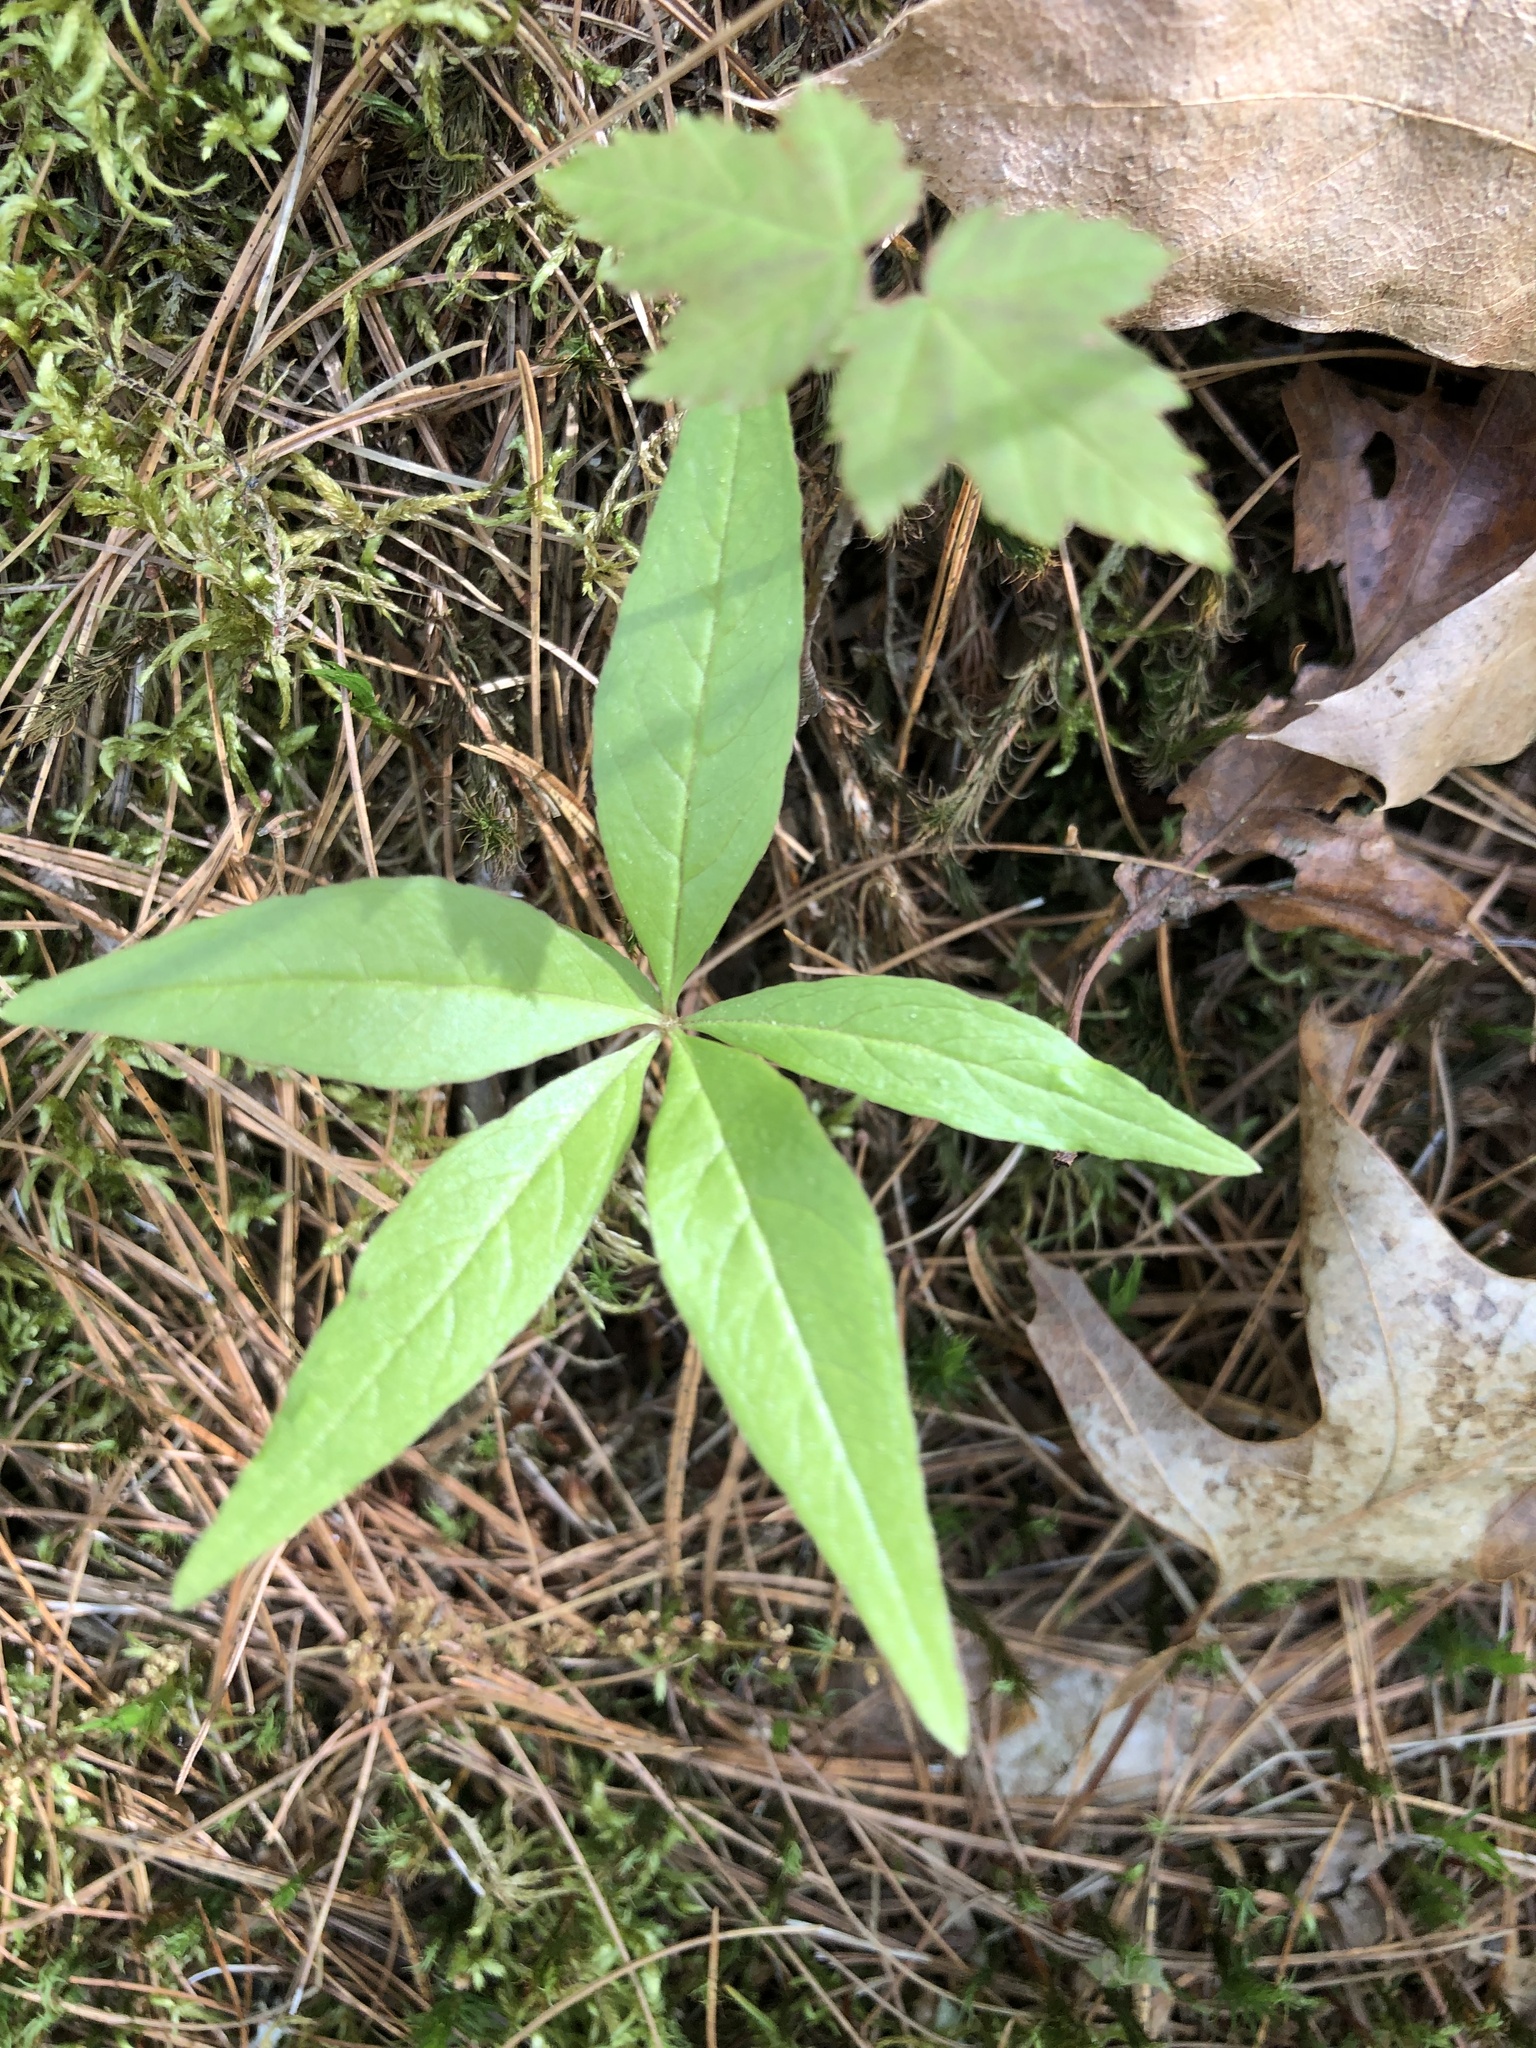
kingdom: Plantae
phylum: Tracheophyta
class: Magnoliopsida
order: Ericales
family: Primulaceae
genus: Lysimachia
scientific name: Lysimachia borealis
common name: American starflower
